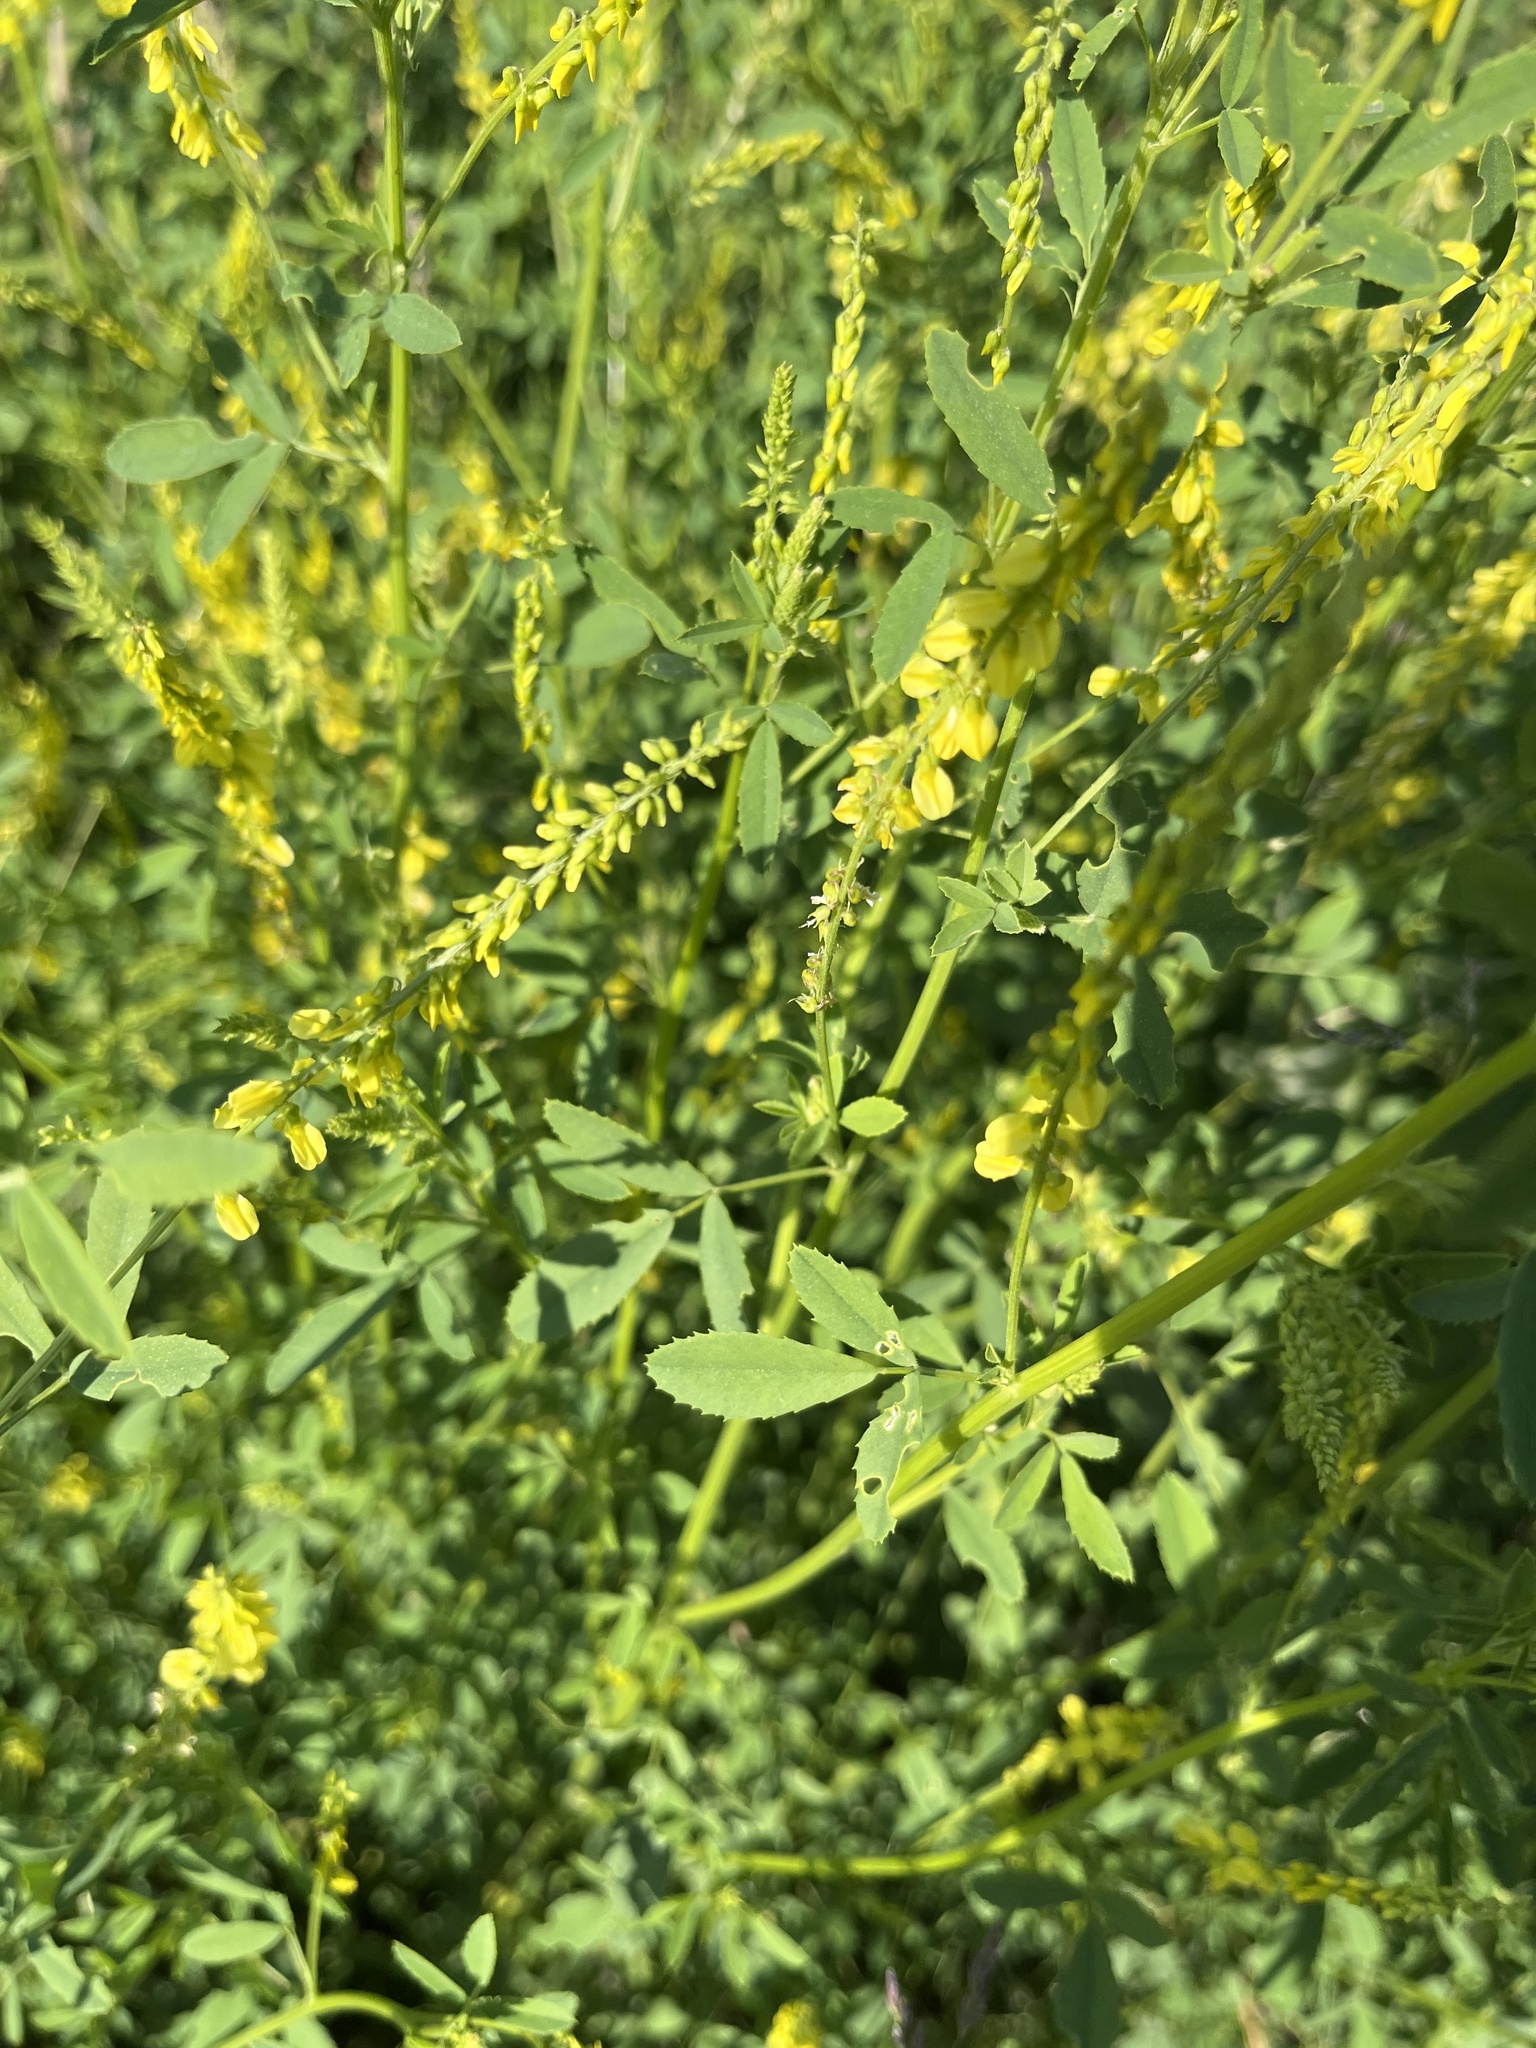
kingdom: Plantae
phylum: Tracheophyta
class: Magnoliopsida
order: Fabales
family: Fabaceae
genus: Melilotus
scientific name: Melilotus officinalis
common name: Sweetclover
